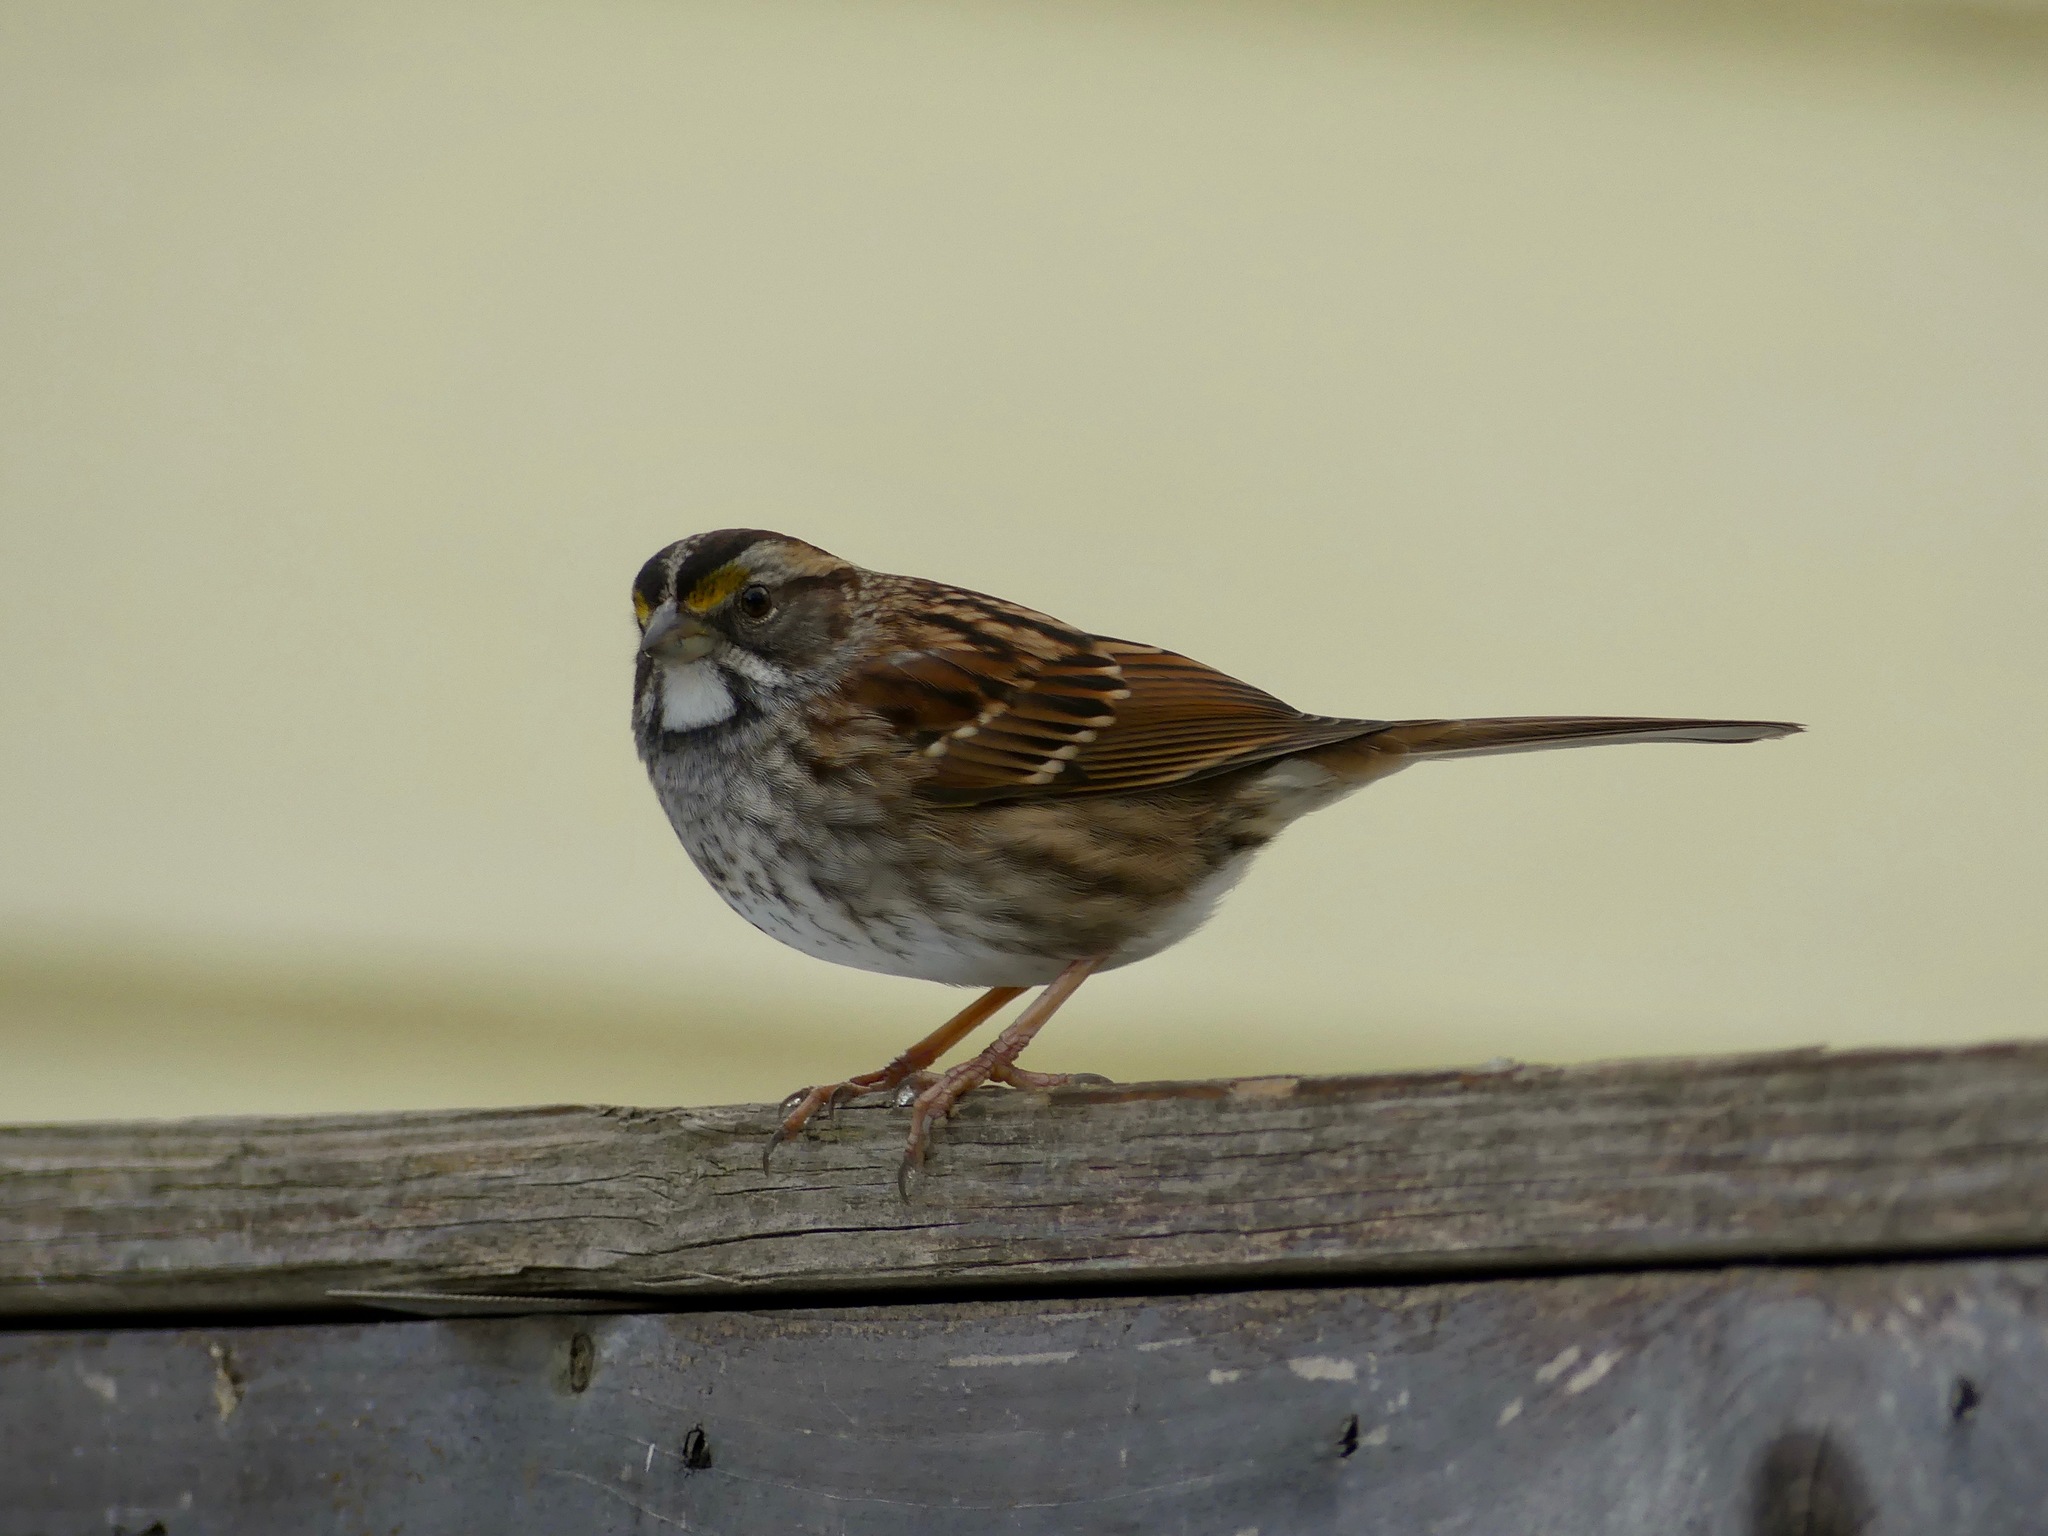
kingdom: Animalia
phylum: Chordata
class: Aves
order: Passeriformes
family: Passerellidae
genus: Zonotrichia
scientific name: Zonotrichia albicollis
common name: White-throated sparrow
